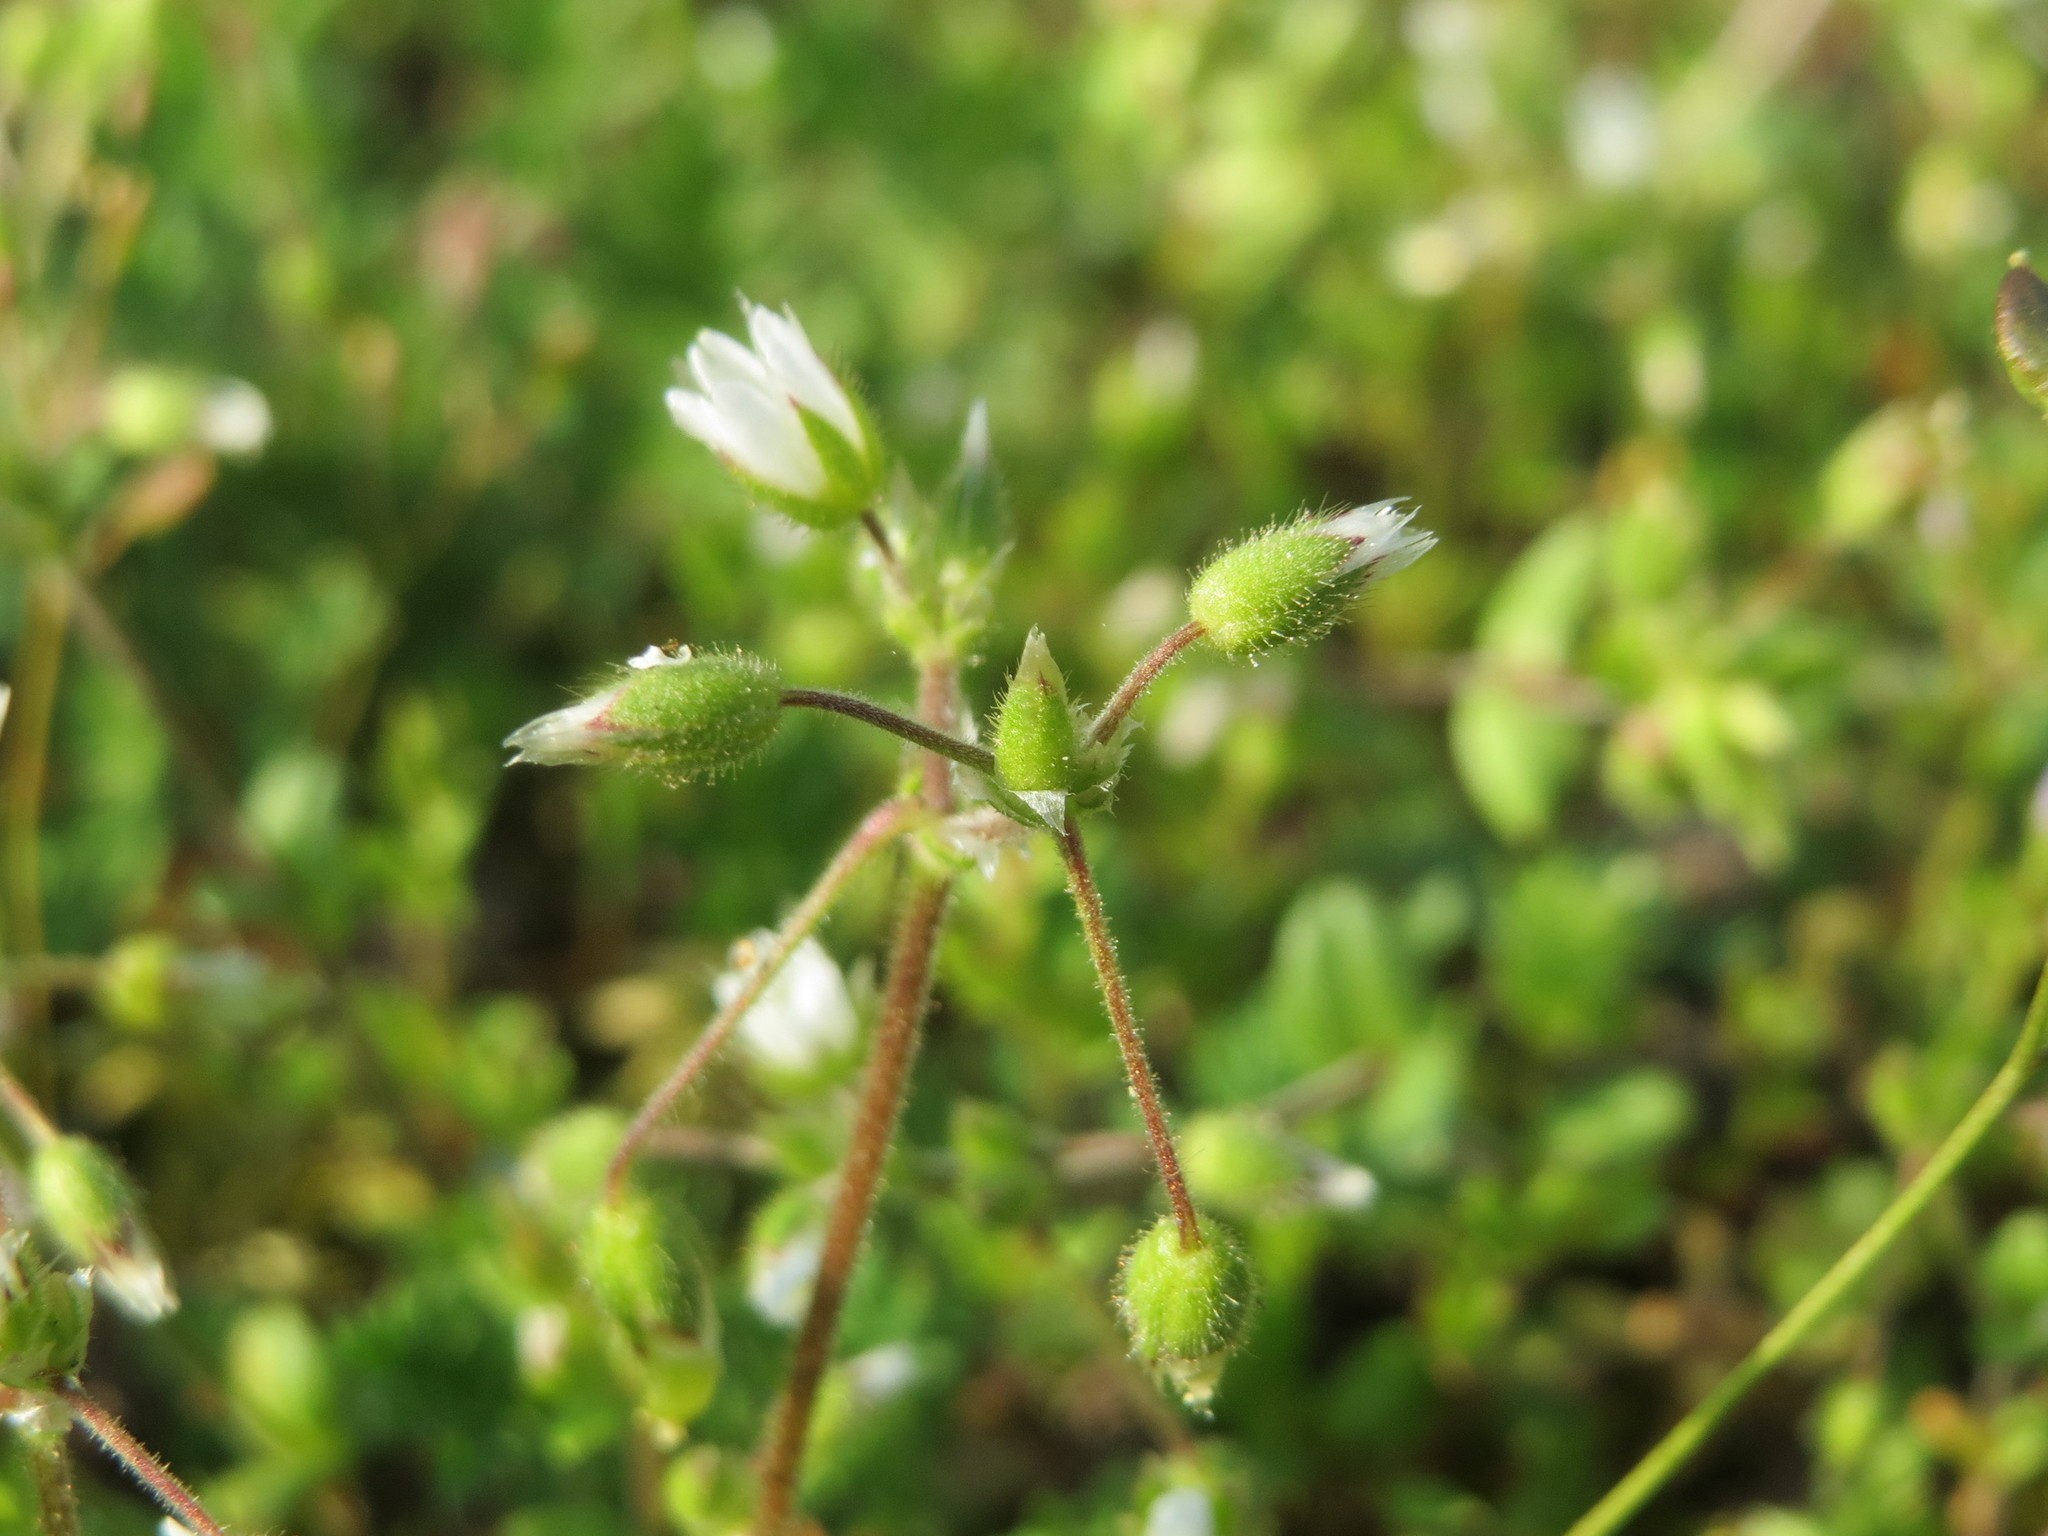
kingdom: Plantae
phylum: Tracheophyta
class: Magnoliopsida
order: Caryophyllales
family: Caryophyllaceae
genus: Cerastium
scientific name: Cerastium semidecandrum
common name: Little mouse-ear
